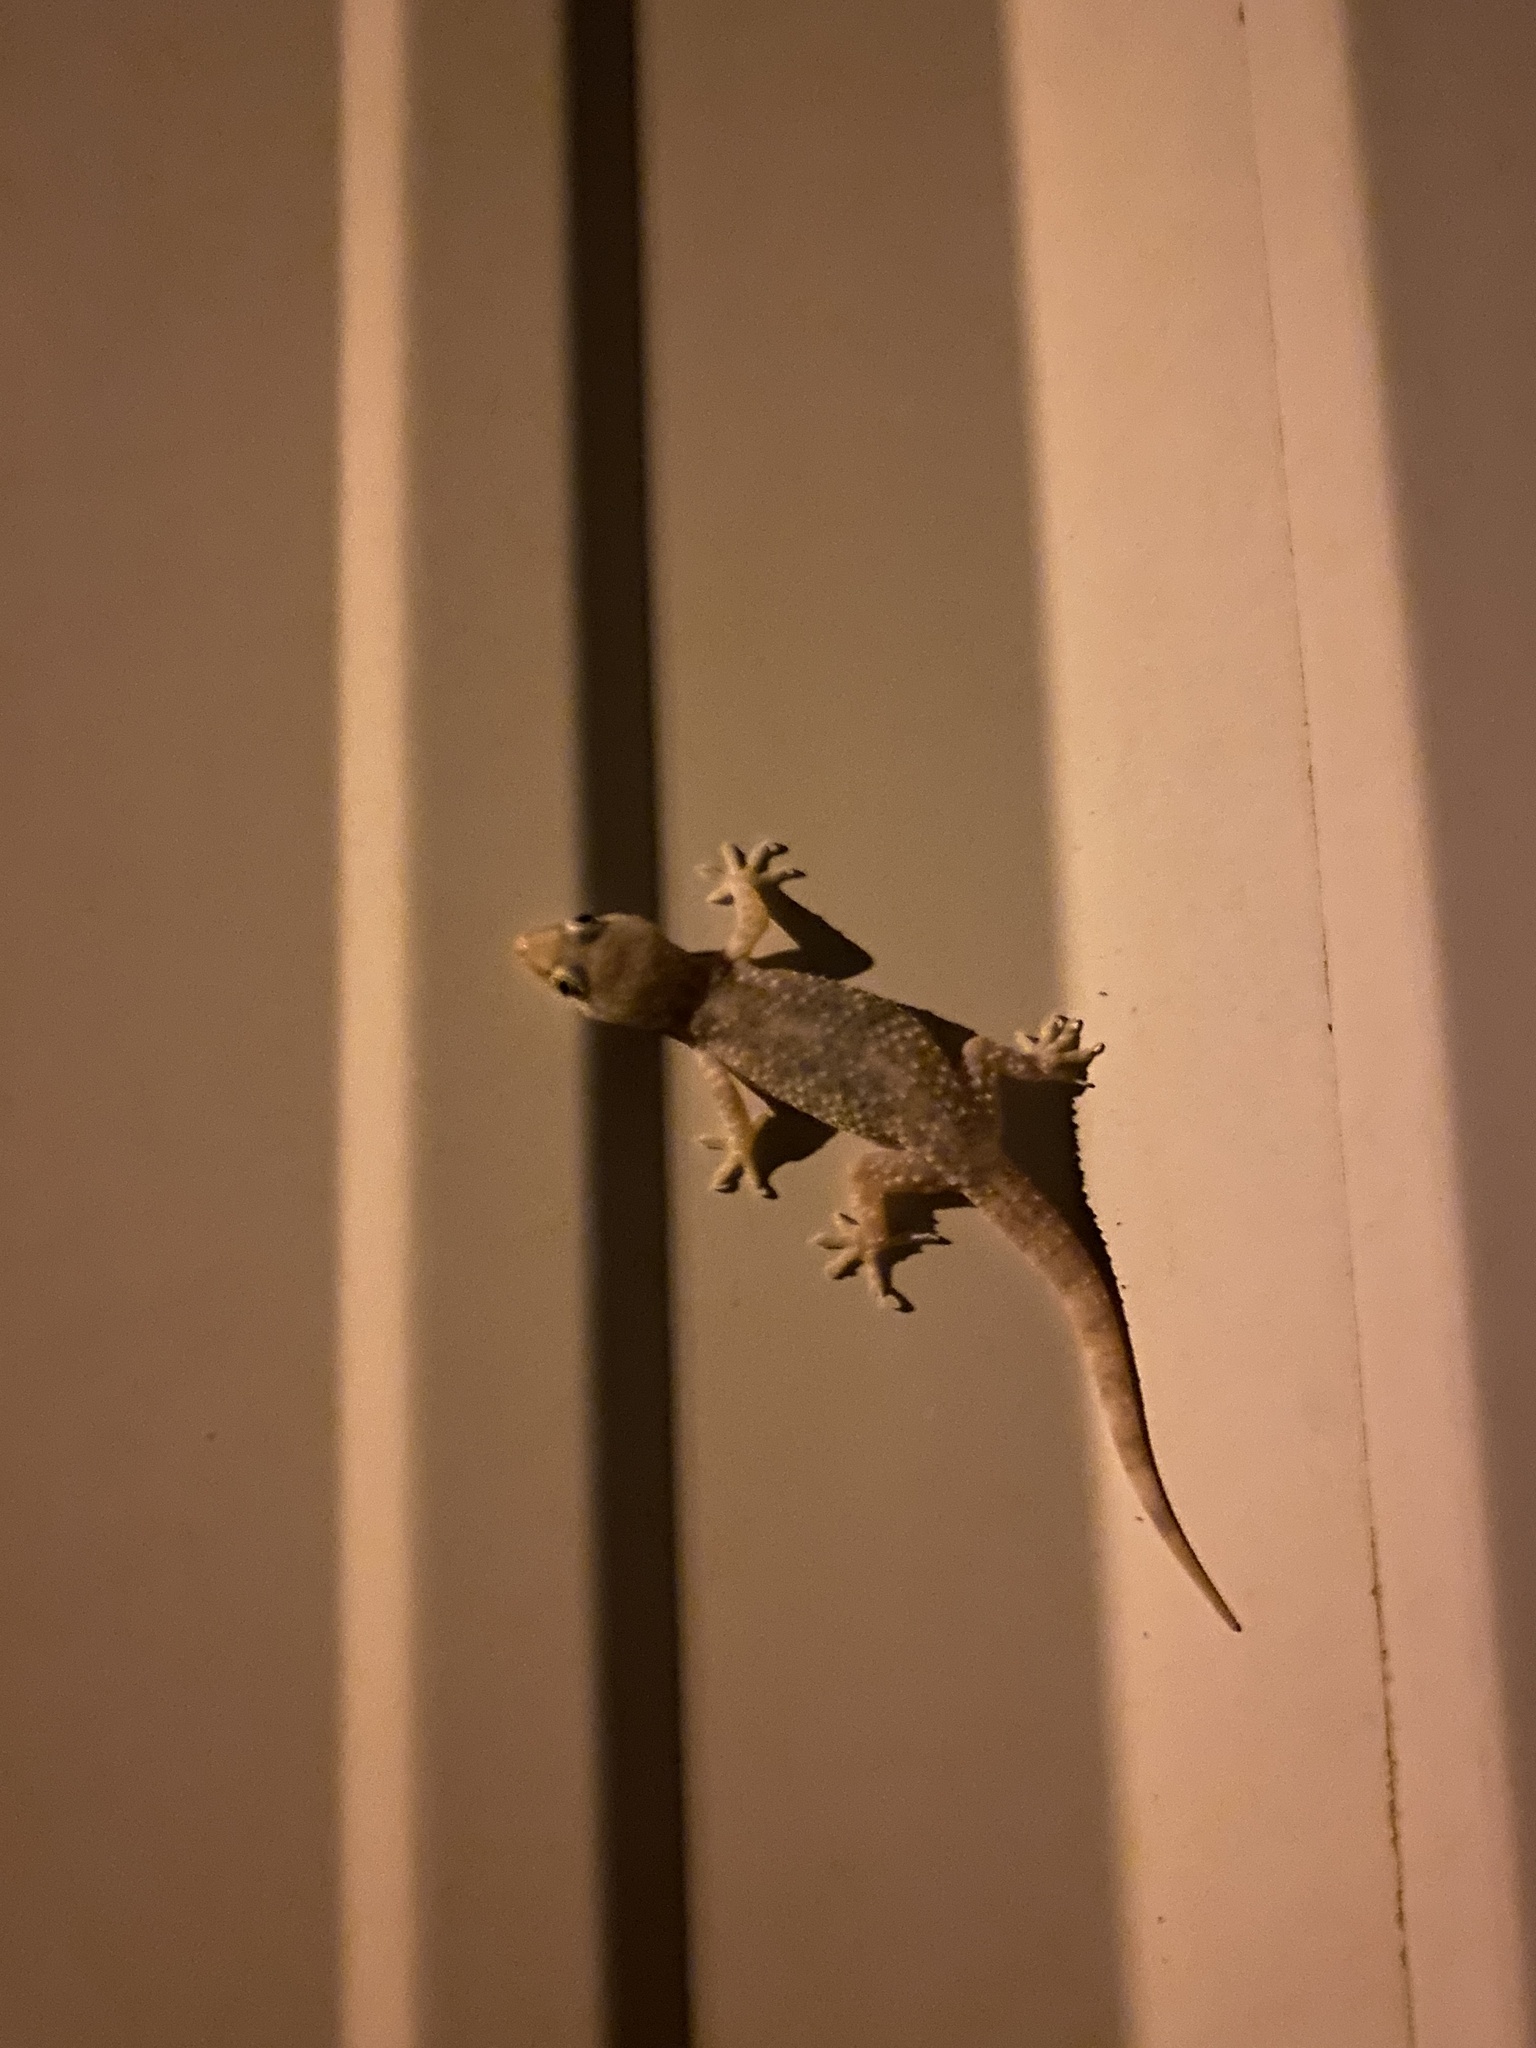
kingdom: Animalia
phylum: Chordata
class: Squamata
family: Gekkonidae
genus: Hemidactylus
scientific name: Hemidactylus turcicus
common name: Turkish gecko
